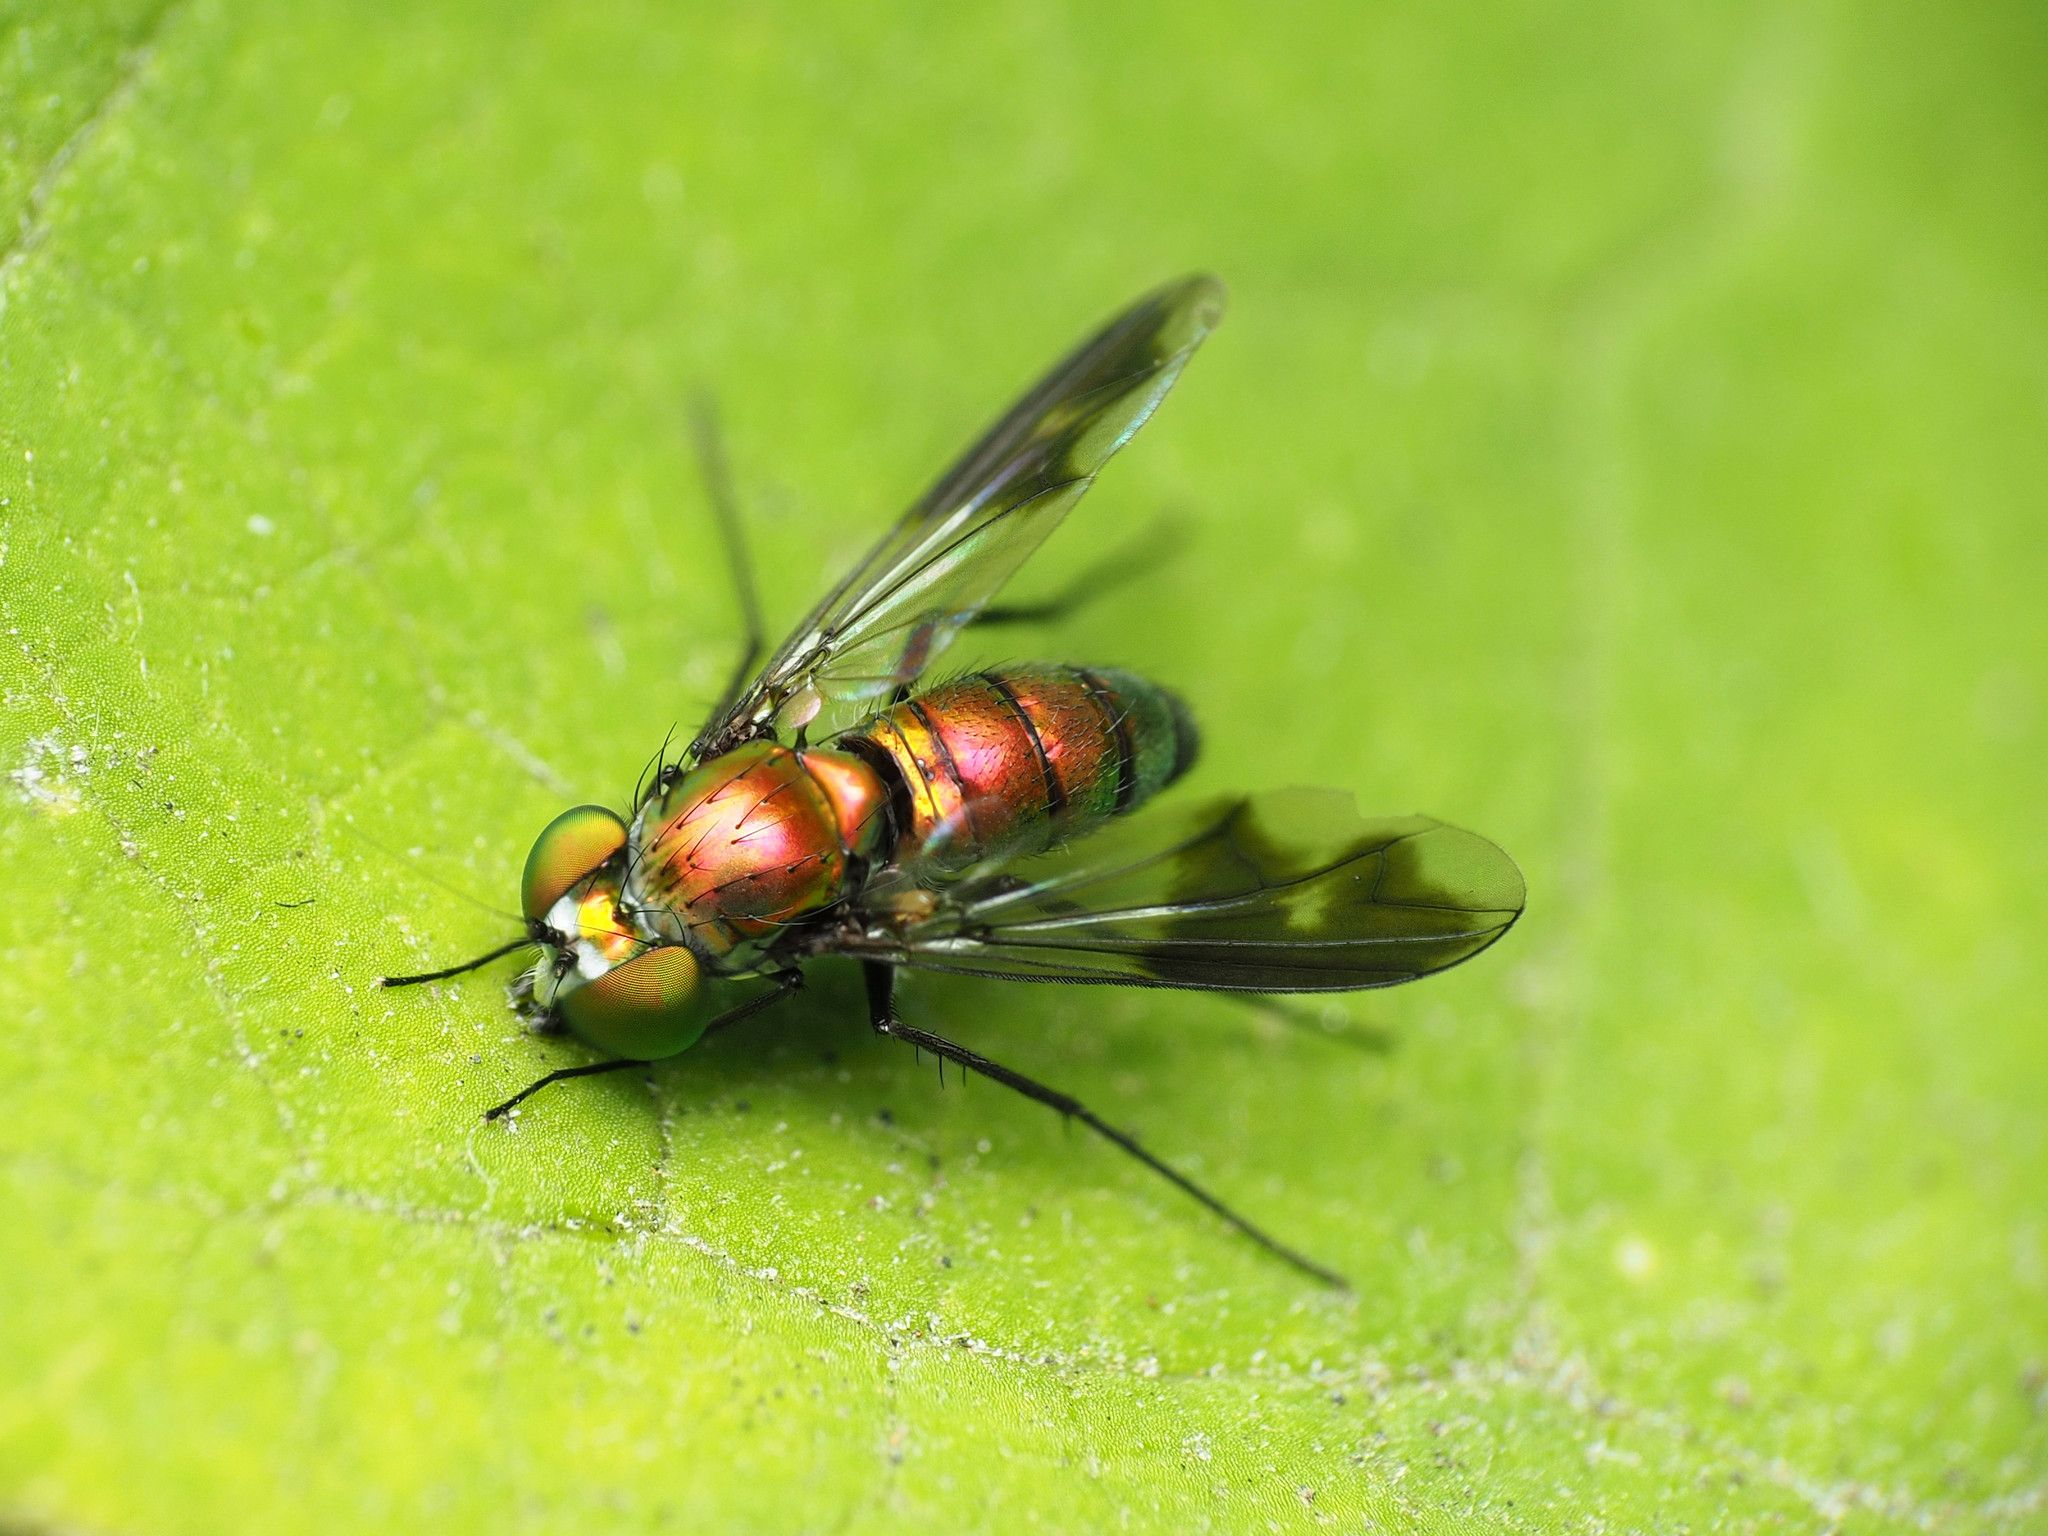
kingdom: Animalia
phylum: Arthropoda
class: Insecta
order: Diptera
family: Dolichopodidae
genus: Condylostylus
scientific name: Condylostylus patibulatus
